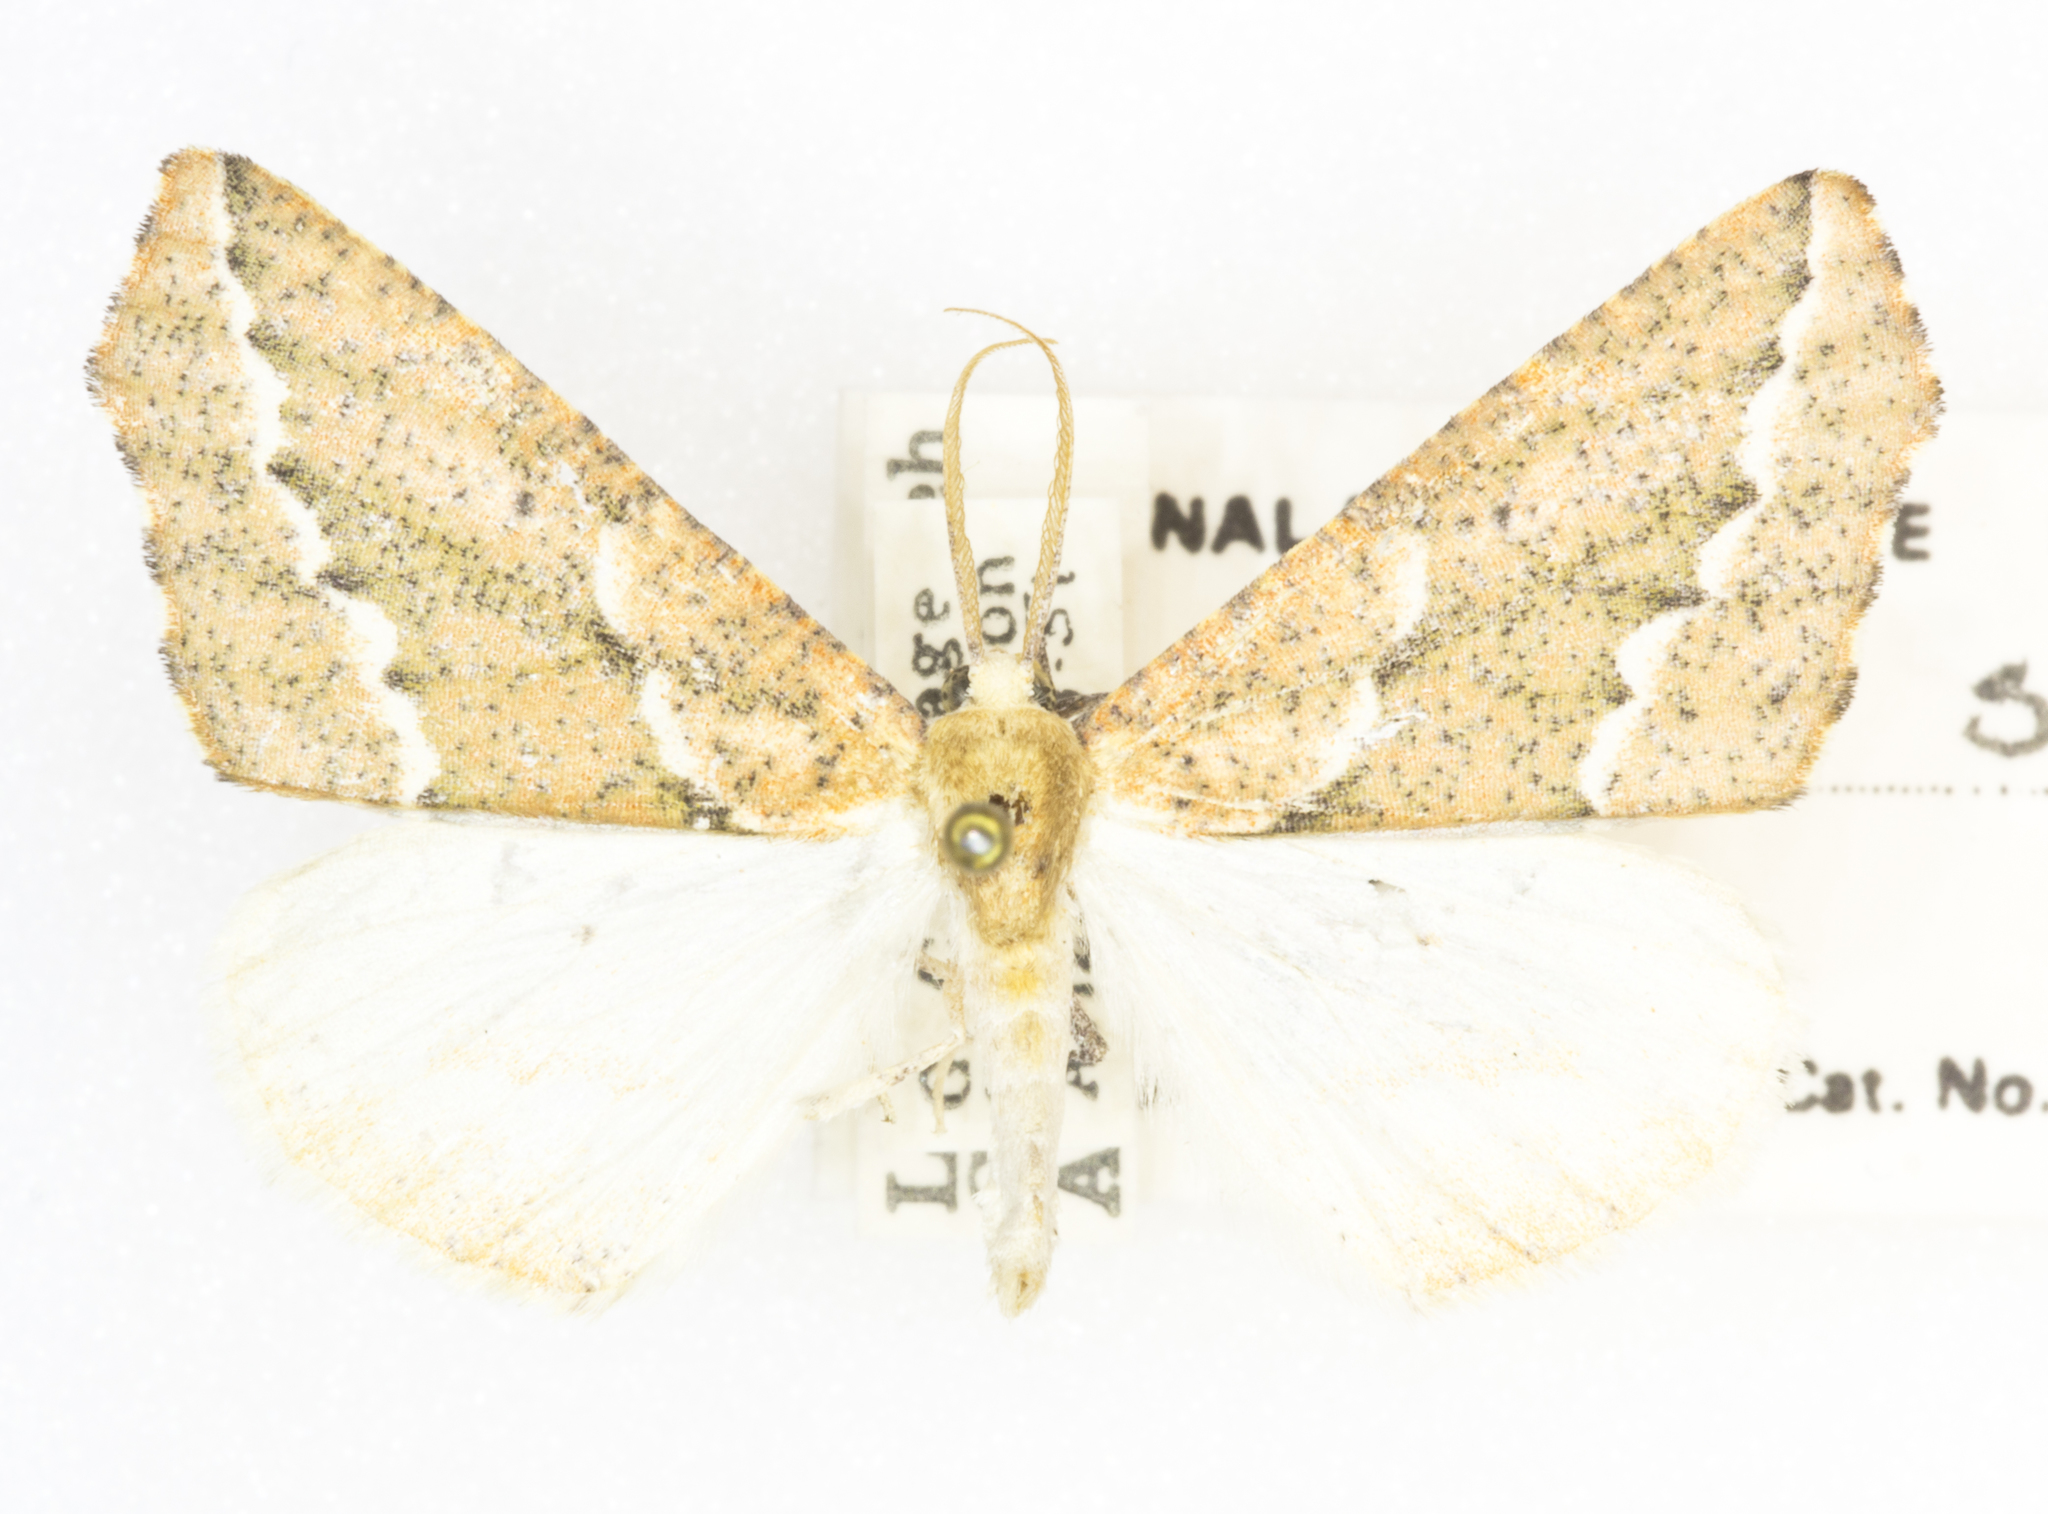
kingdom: Animalia
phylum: Arthropoda
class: Insecta
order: Lepidoptera
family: Geometridae
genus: Sicya
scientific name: Sicya morsicaria
